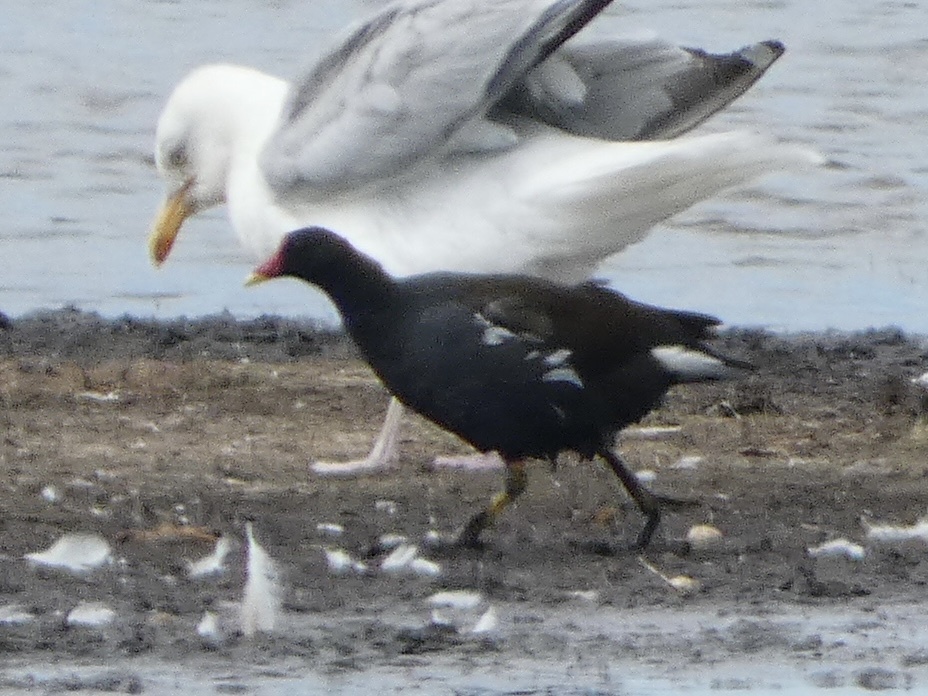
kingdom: Animalia
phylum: Chordata
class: Aves
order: Gruiformes
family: Rallidae
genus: Gallinula
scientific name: Gallinula chloropus
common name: Common moorhen
